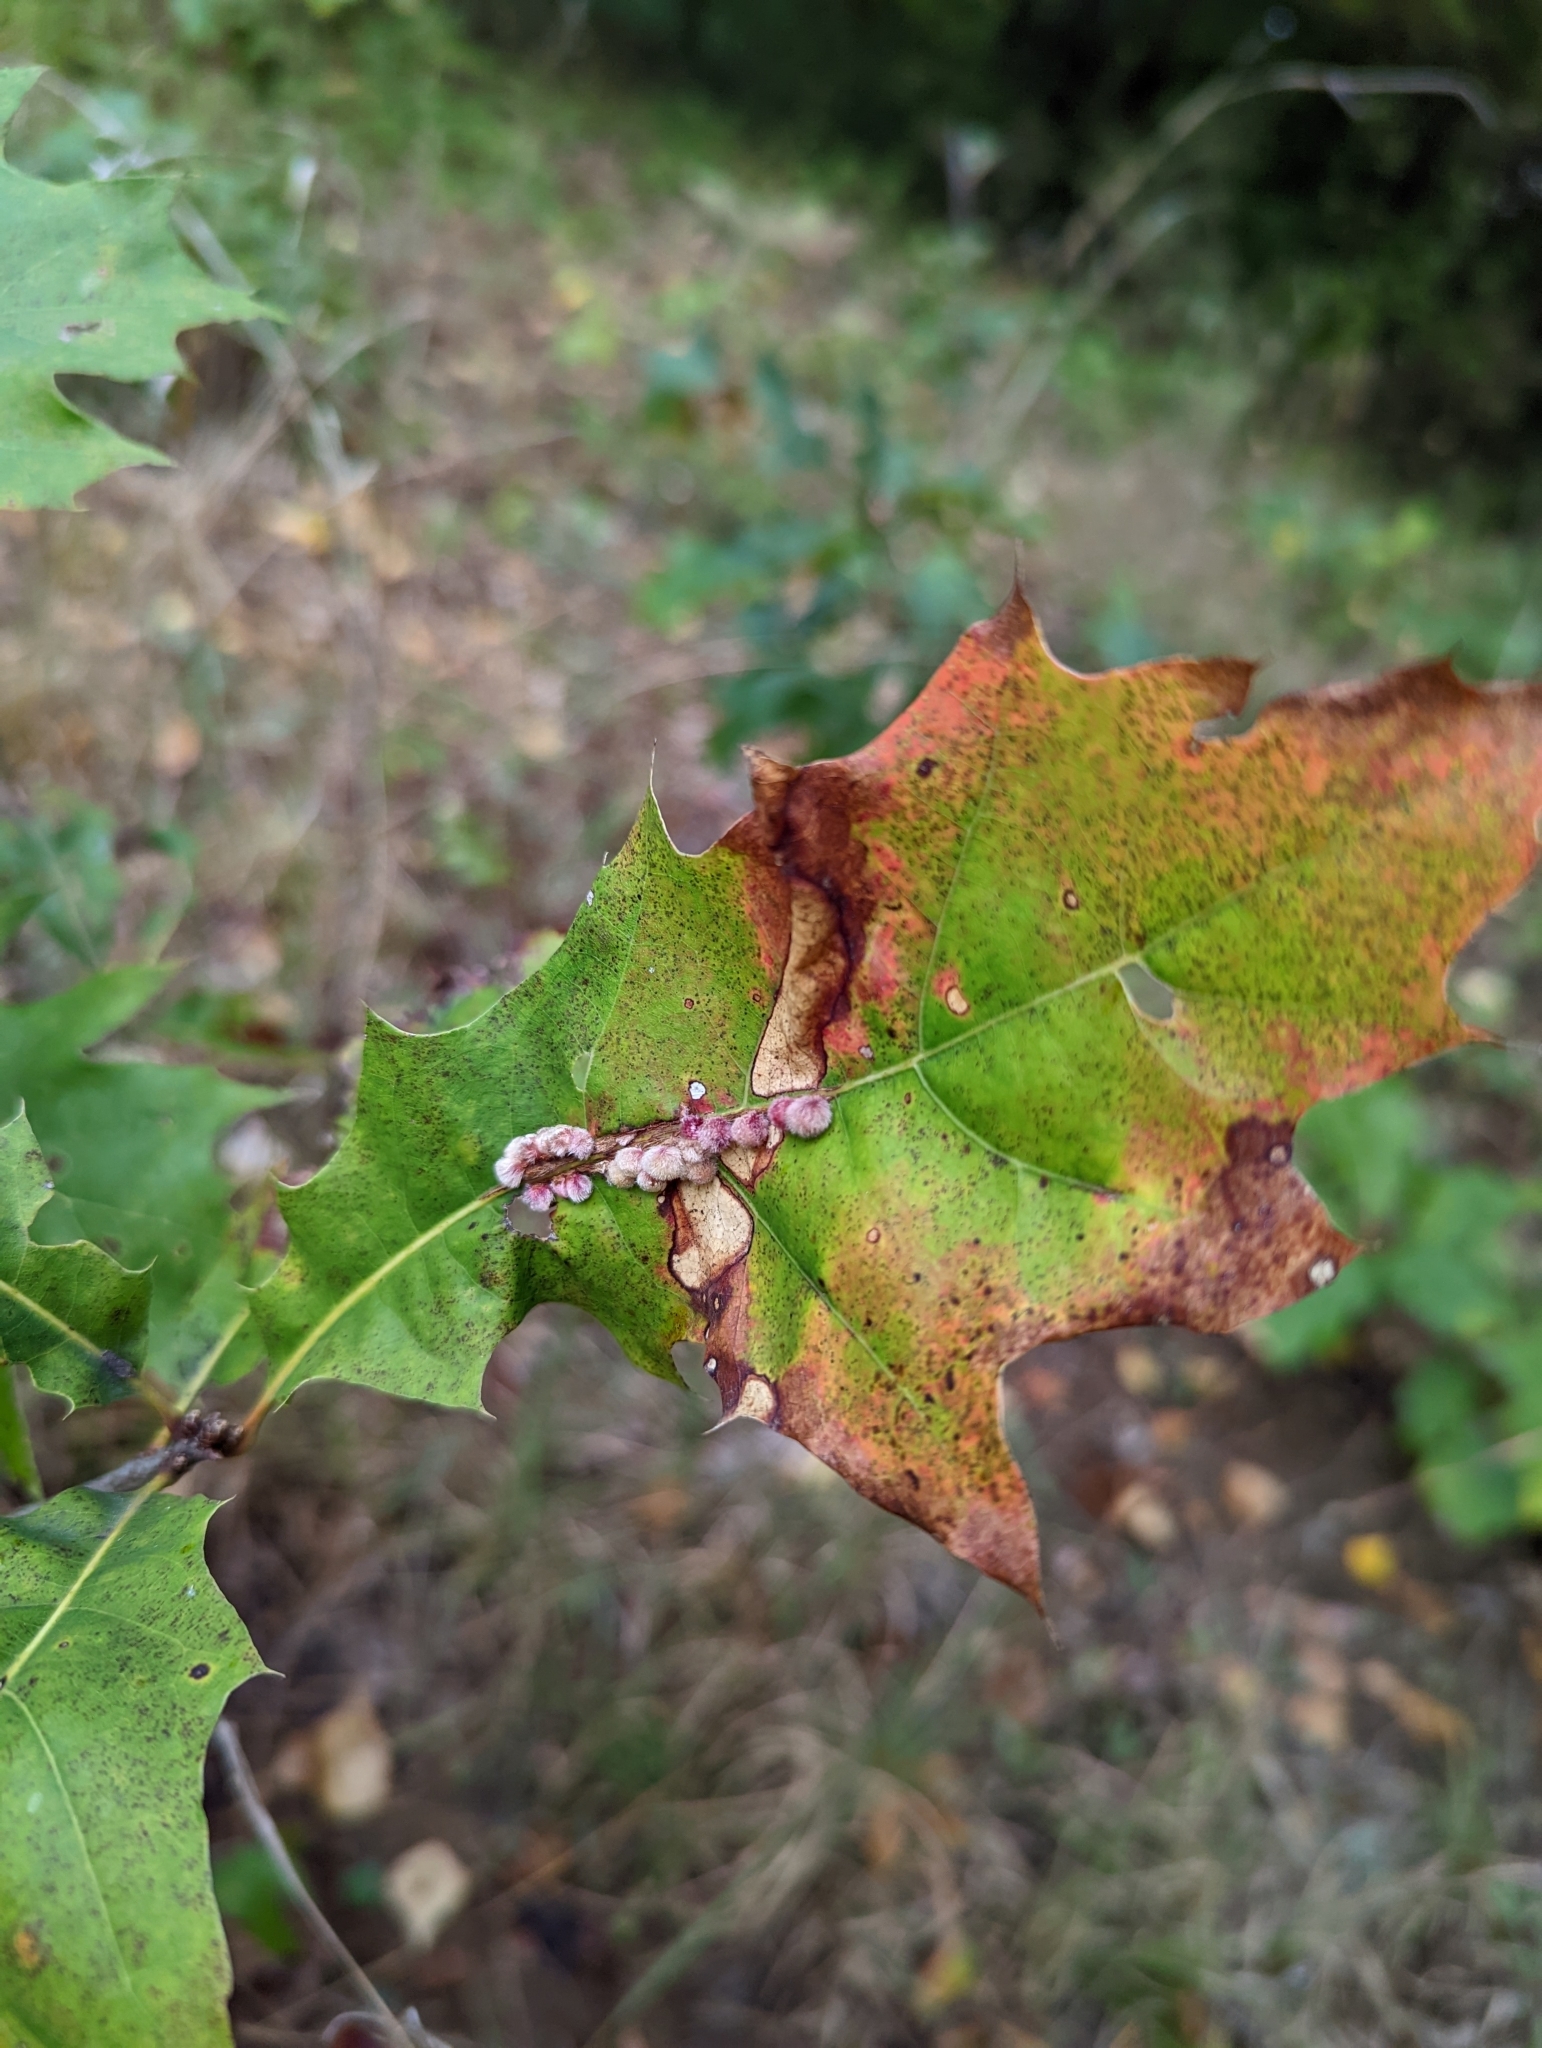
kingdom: Animalia
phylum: Arthropoda
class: Insecta
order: Hymenoptera
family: Cynipidae
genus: Callirhytis
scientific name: Callirhytis
